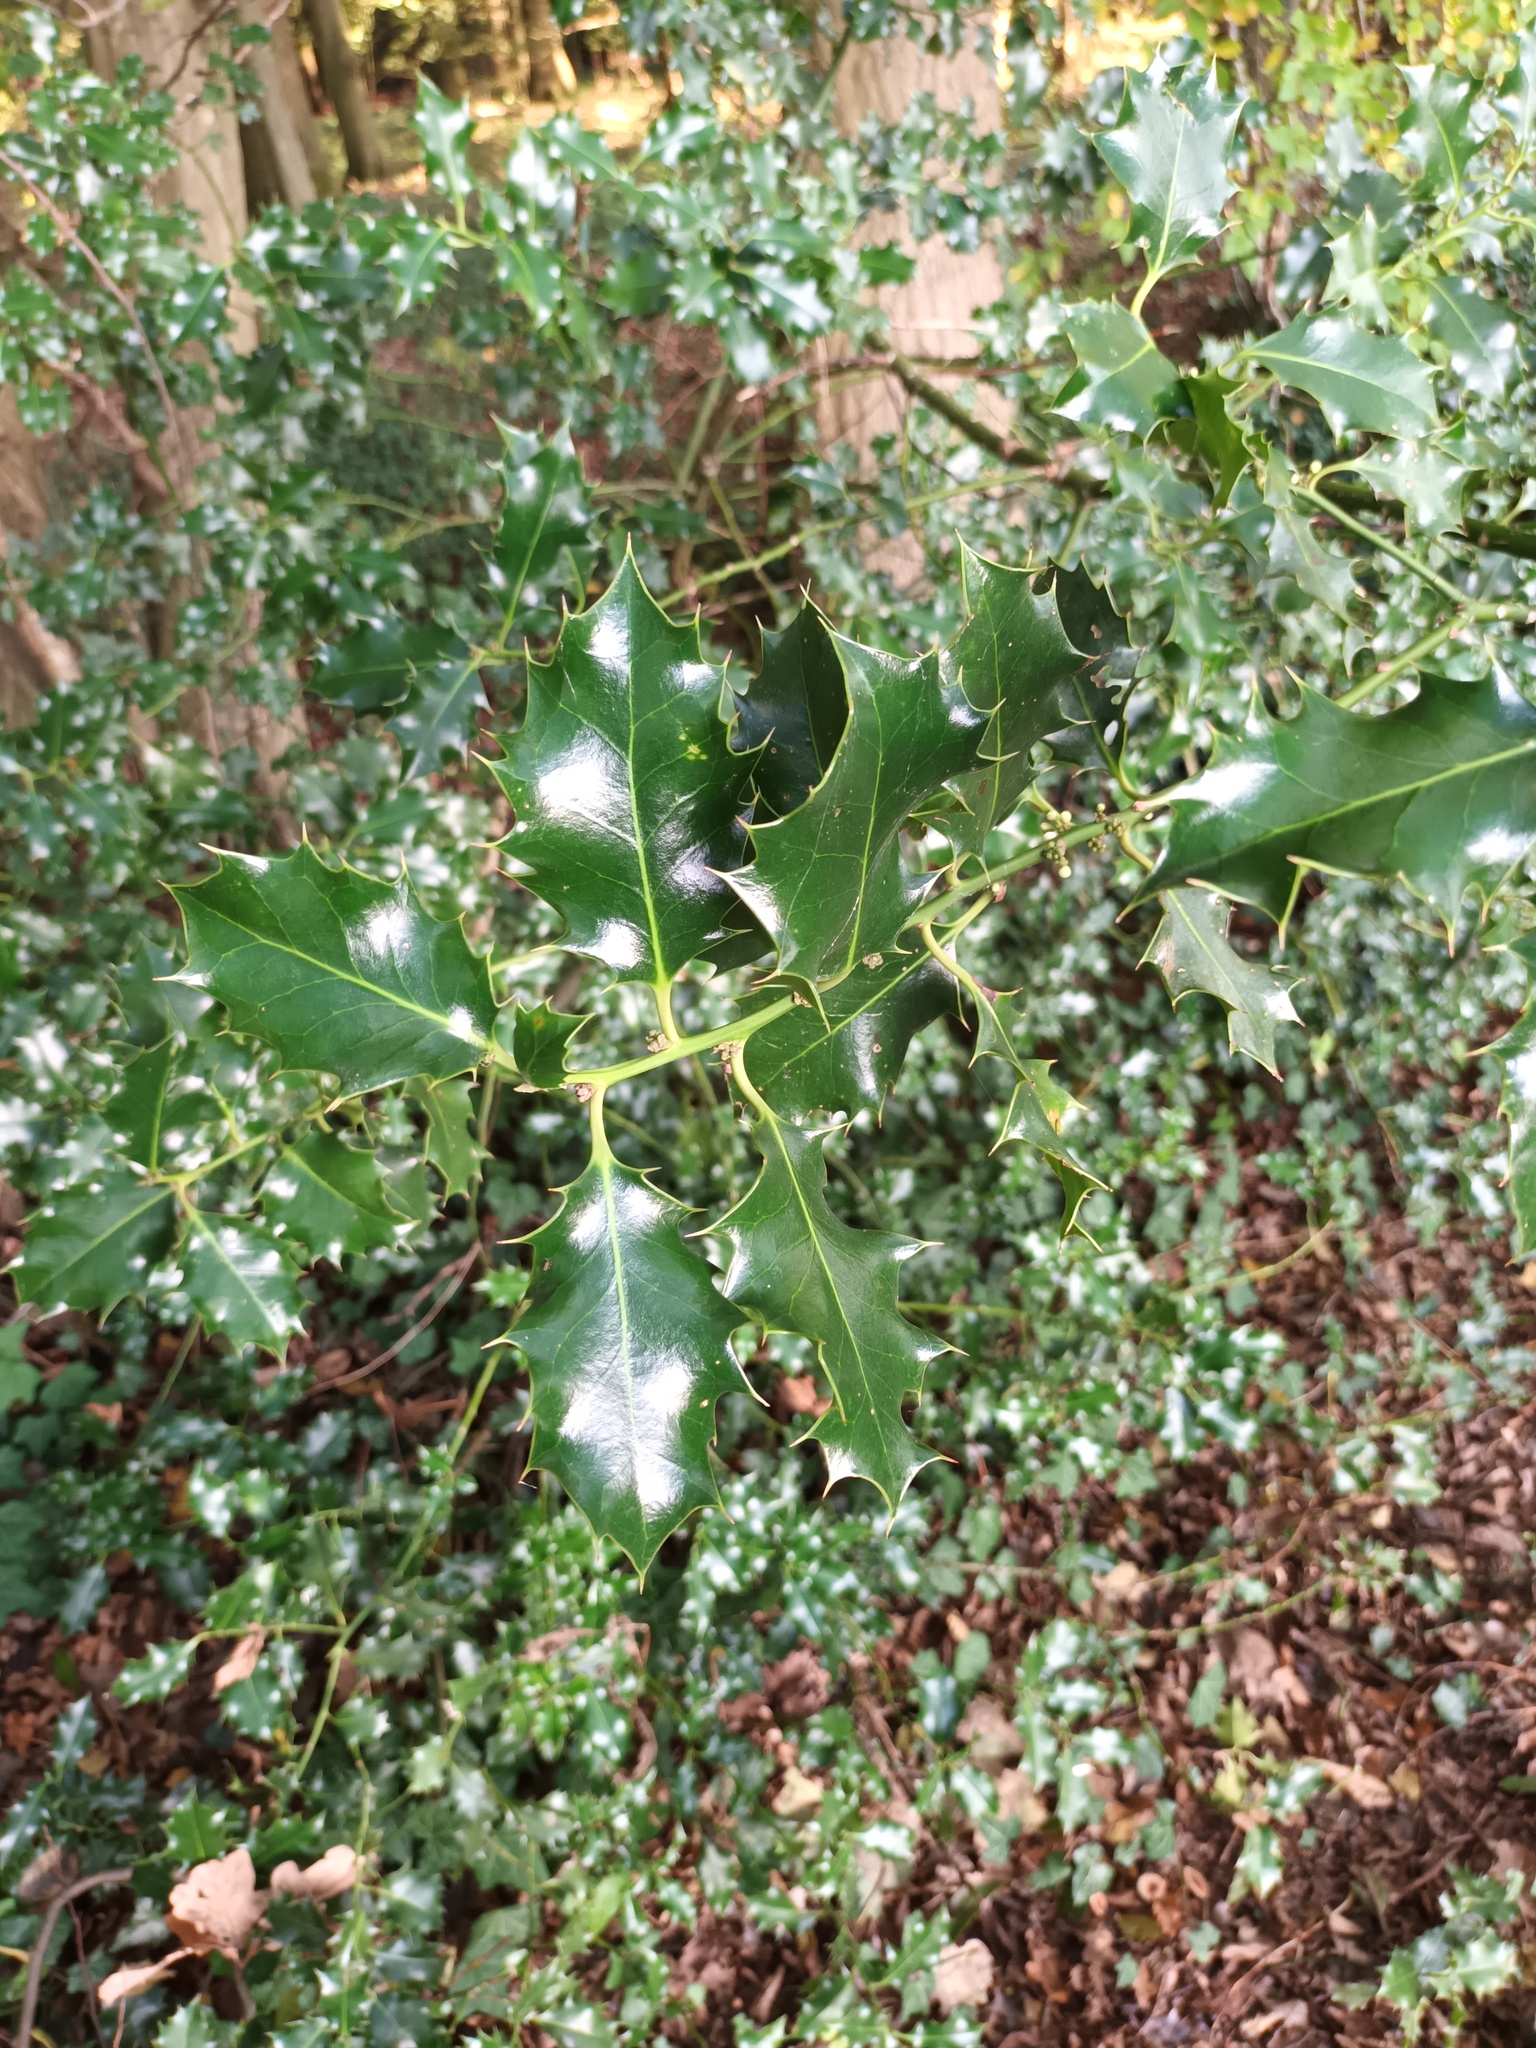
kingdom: Plantae
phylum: Tracheophyta
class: Magnoliopsida
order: Aquifoliales
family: Aquifoliaceae
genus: Ilex
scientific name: Ilex aquifolium
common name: English holly
